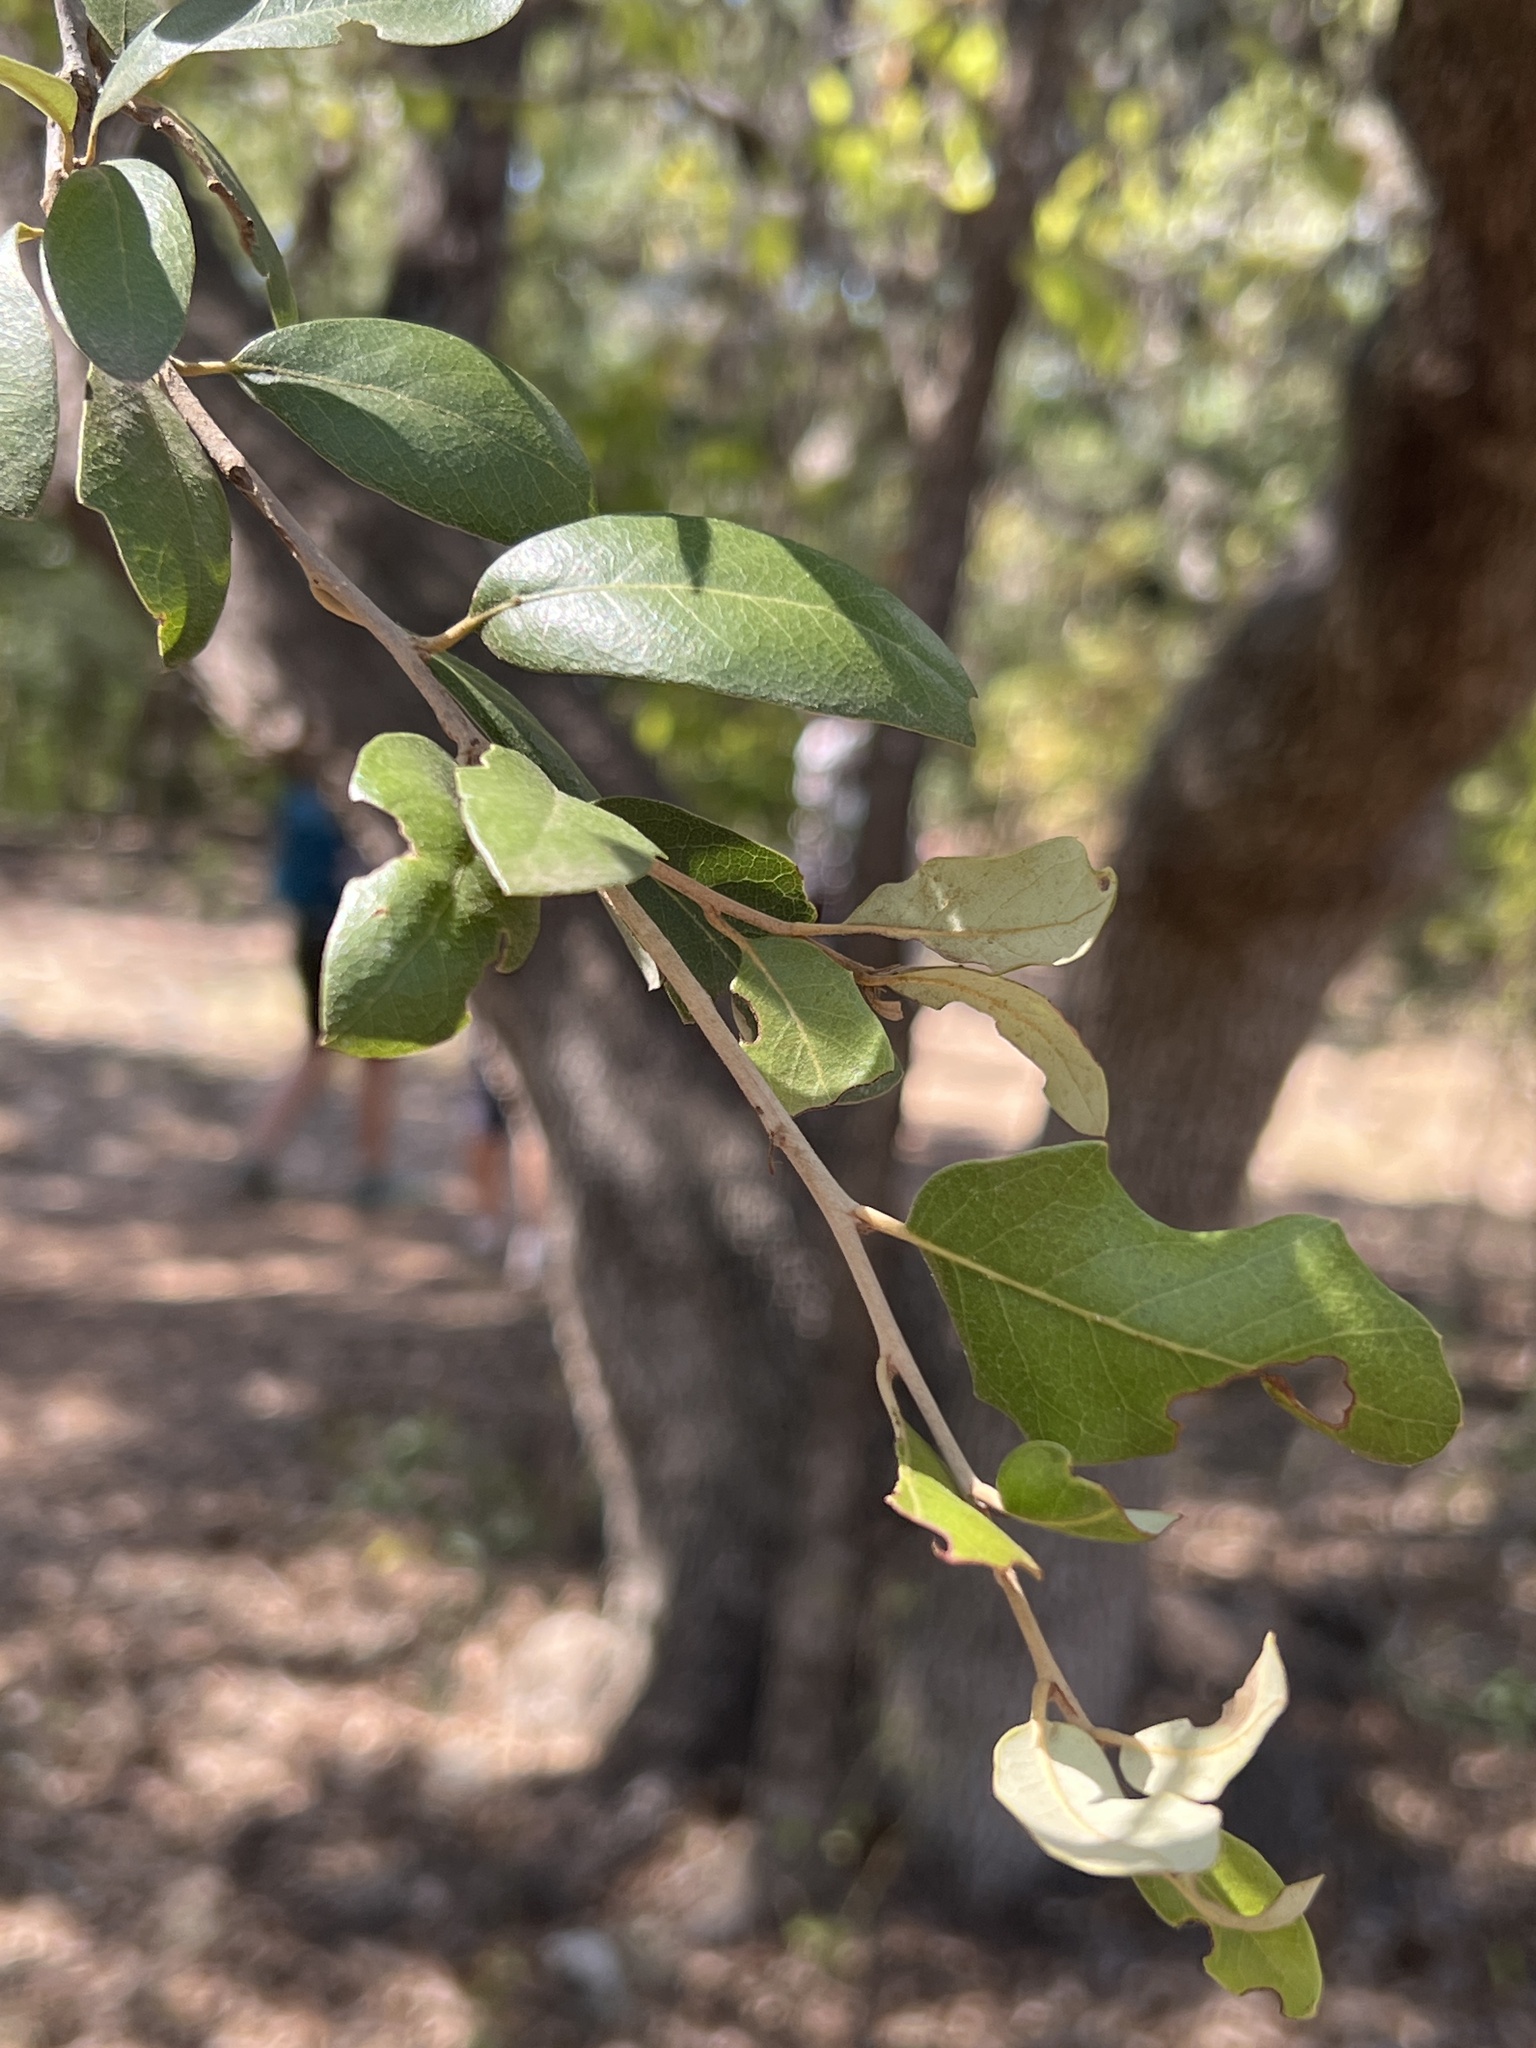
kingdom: Plantae
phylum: Tracheophyta
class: Magnoliopsida
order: Fagales
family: Fagaceae
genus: Quercus
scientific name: Quercus fusiformis
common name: Texas live oak
